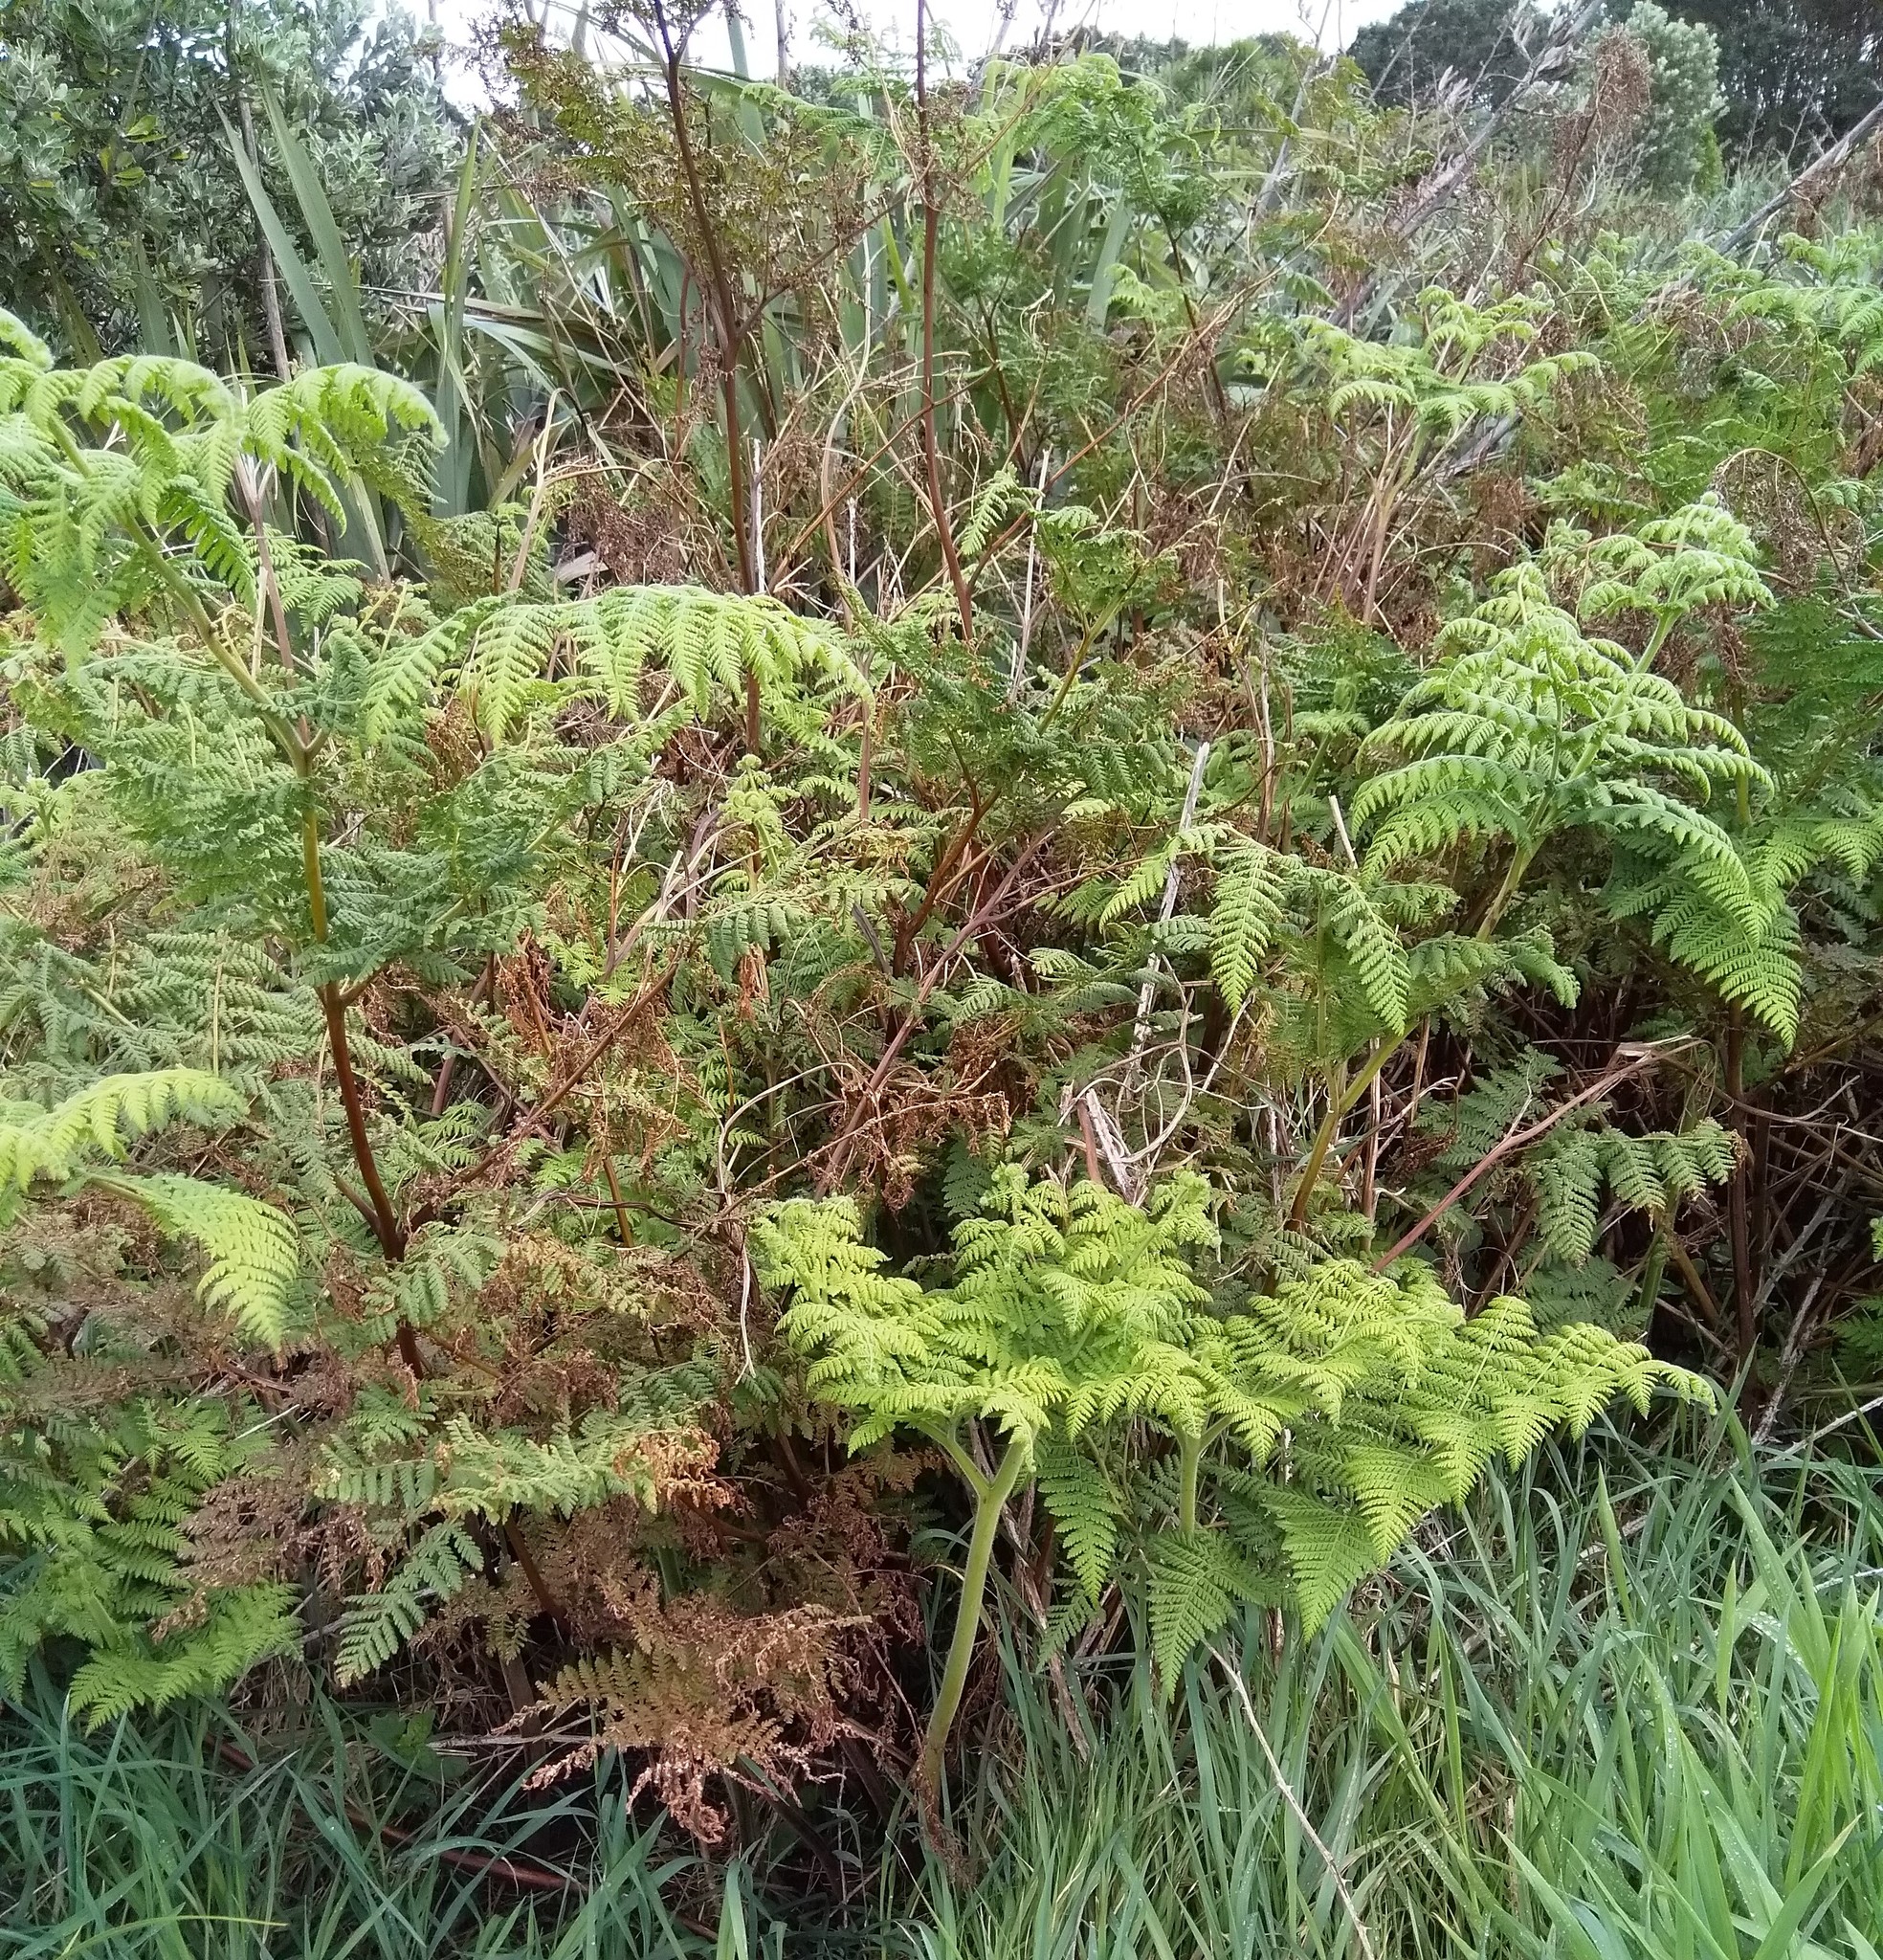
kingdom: Plantae
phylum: Tracheophyta
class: Polypodiopsida
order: Polypodiales
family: Dennstaedtiaceae
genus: Histiopteris
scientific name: Histiopteris incisa
